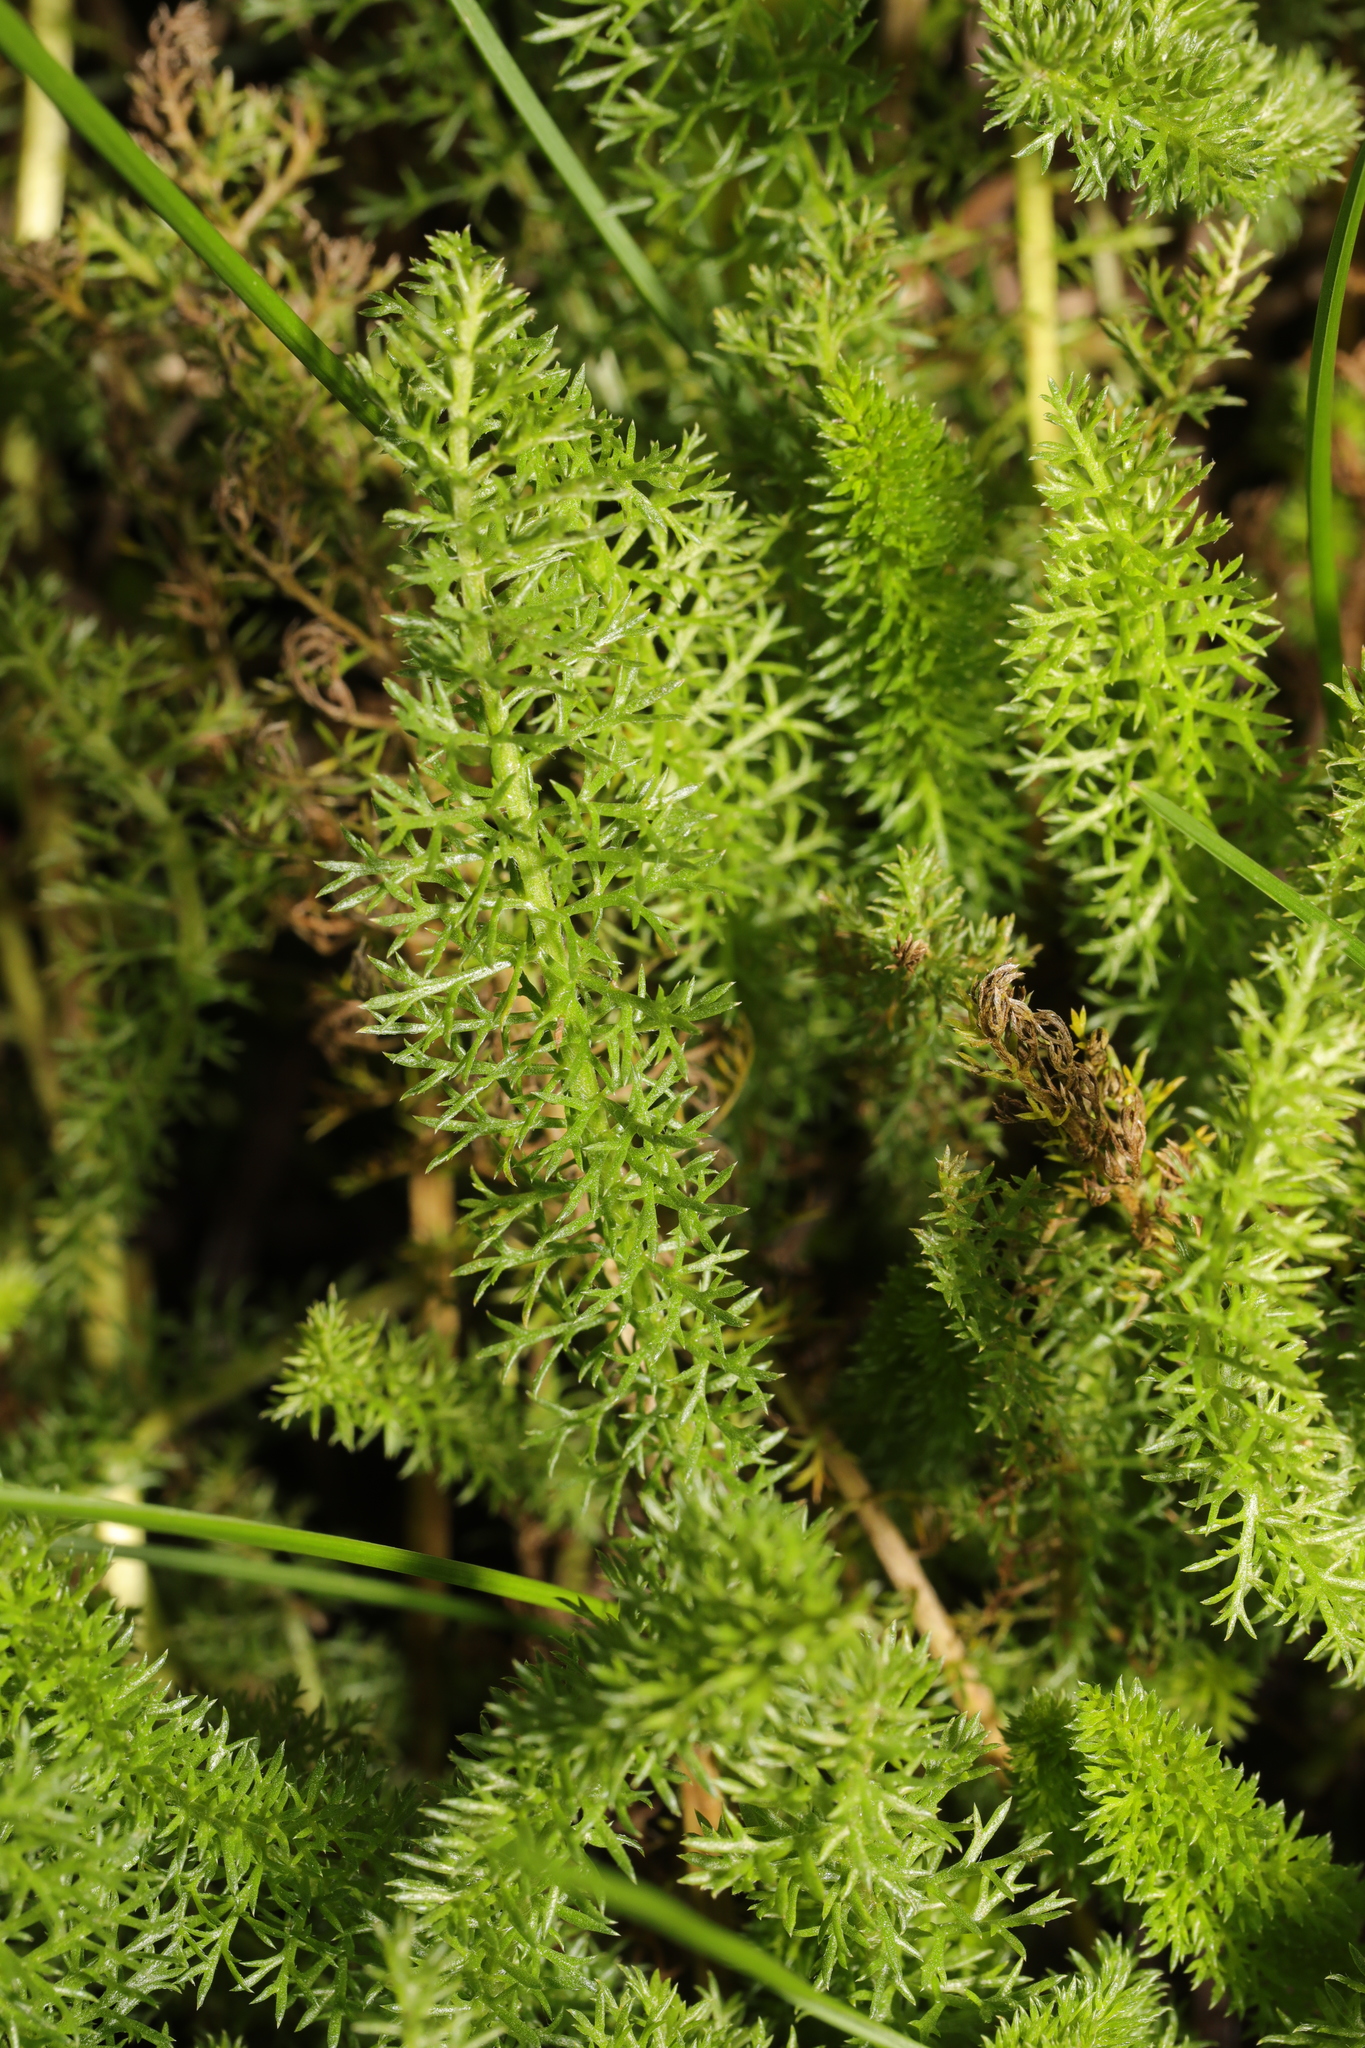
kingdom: Plantae
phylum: Tracheophyta
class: Magnoliopsida
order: Asterales
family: Asteraceae
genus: Achillea
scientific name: Achillea millefolium
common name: Yarrow
